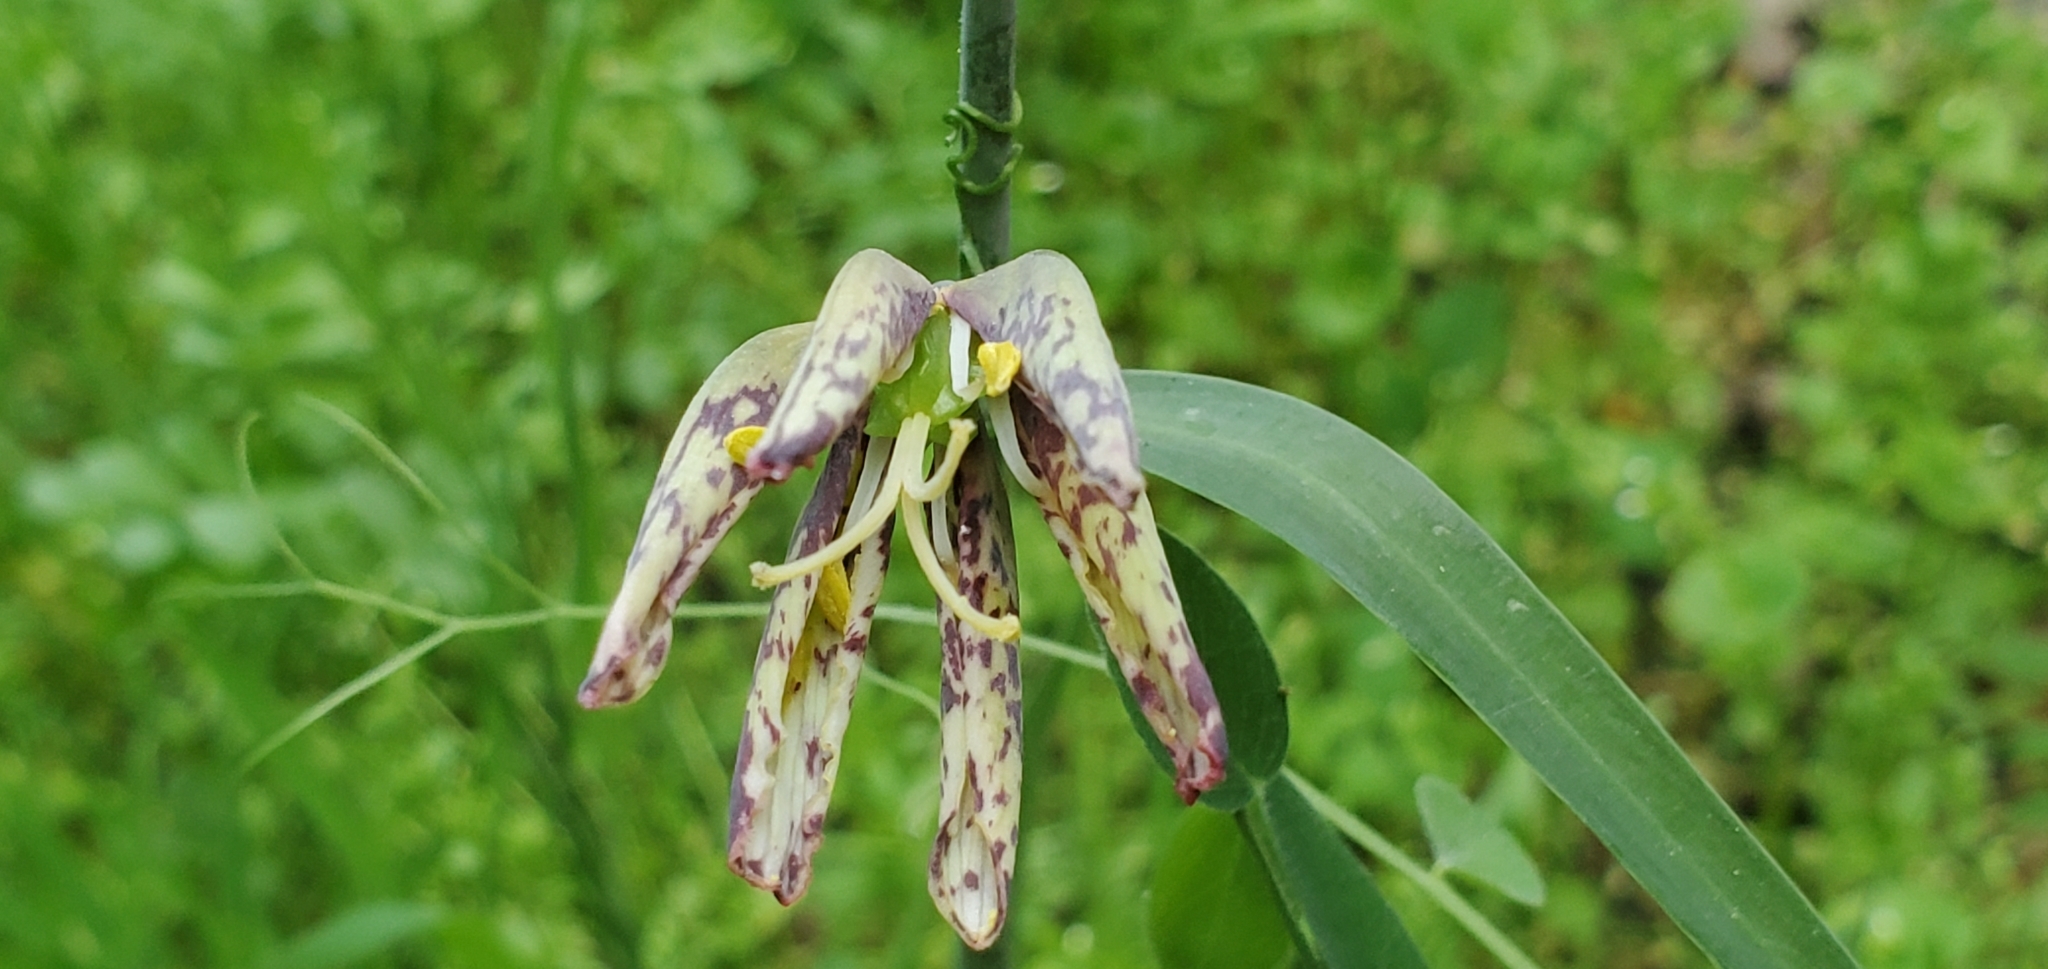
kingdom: Plantae
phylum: Tracheophyta
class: Liliopsida
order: Liliales
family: Liliaceae
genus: Fritillaria
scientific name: Fritillaria affinis
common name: Ojai fritillary
